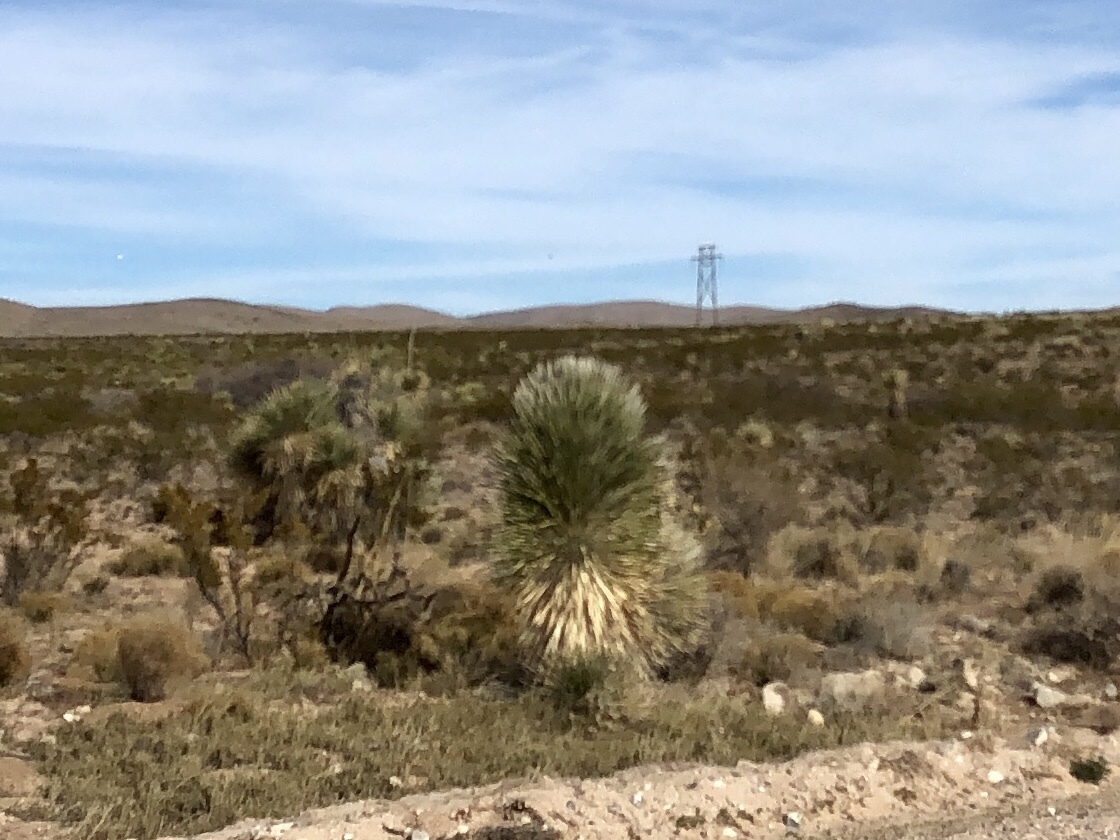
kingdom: Plantae
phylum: Tracheophyta
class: Liliopsida
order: Asparagales
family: Asparagaceae
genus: Yucca
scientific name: Yucca elata
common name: Palmella
